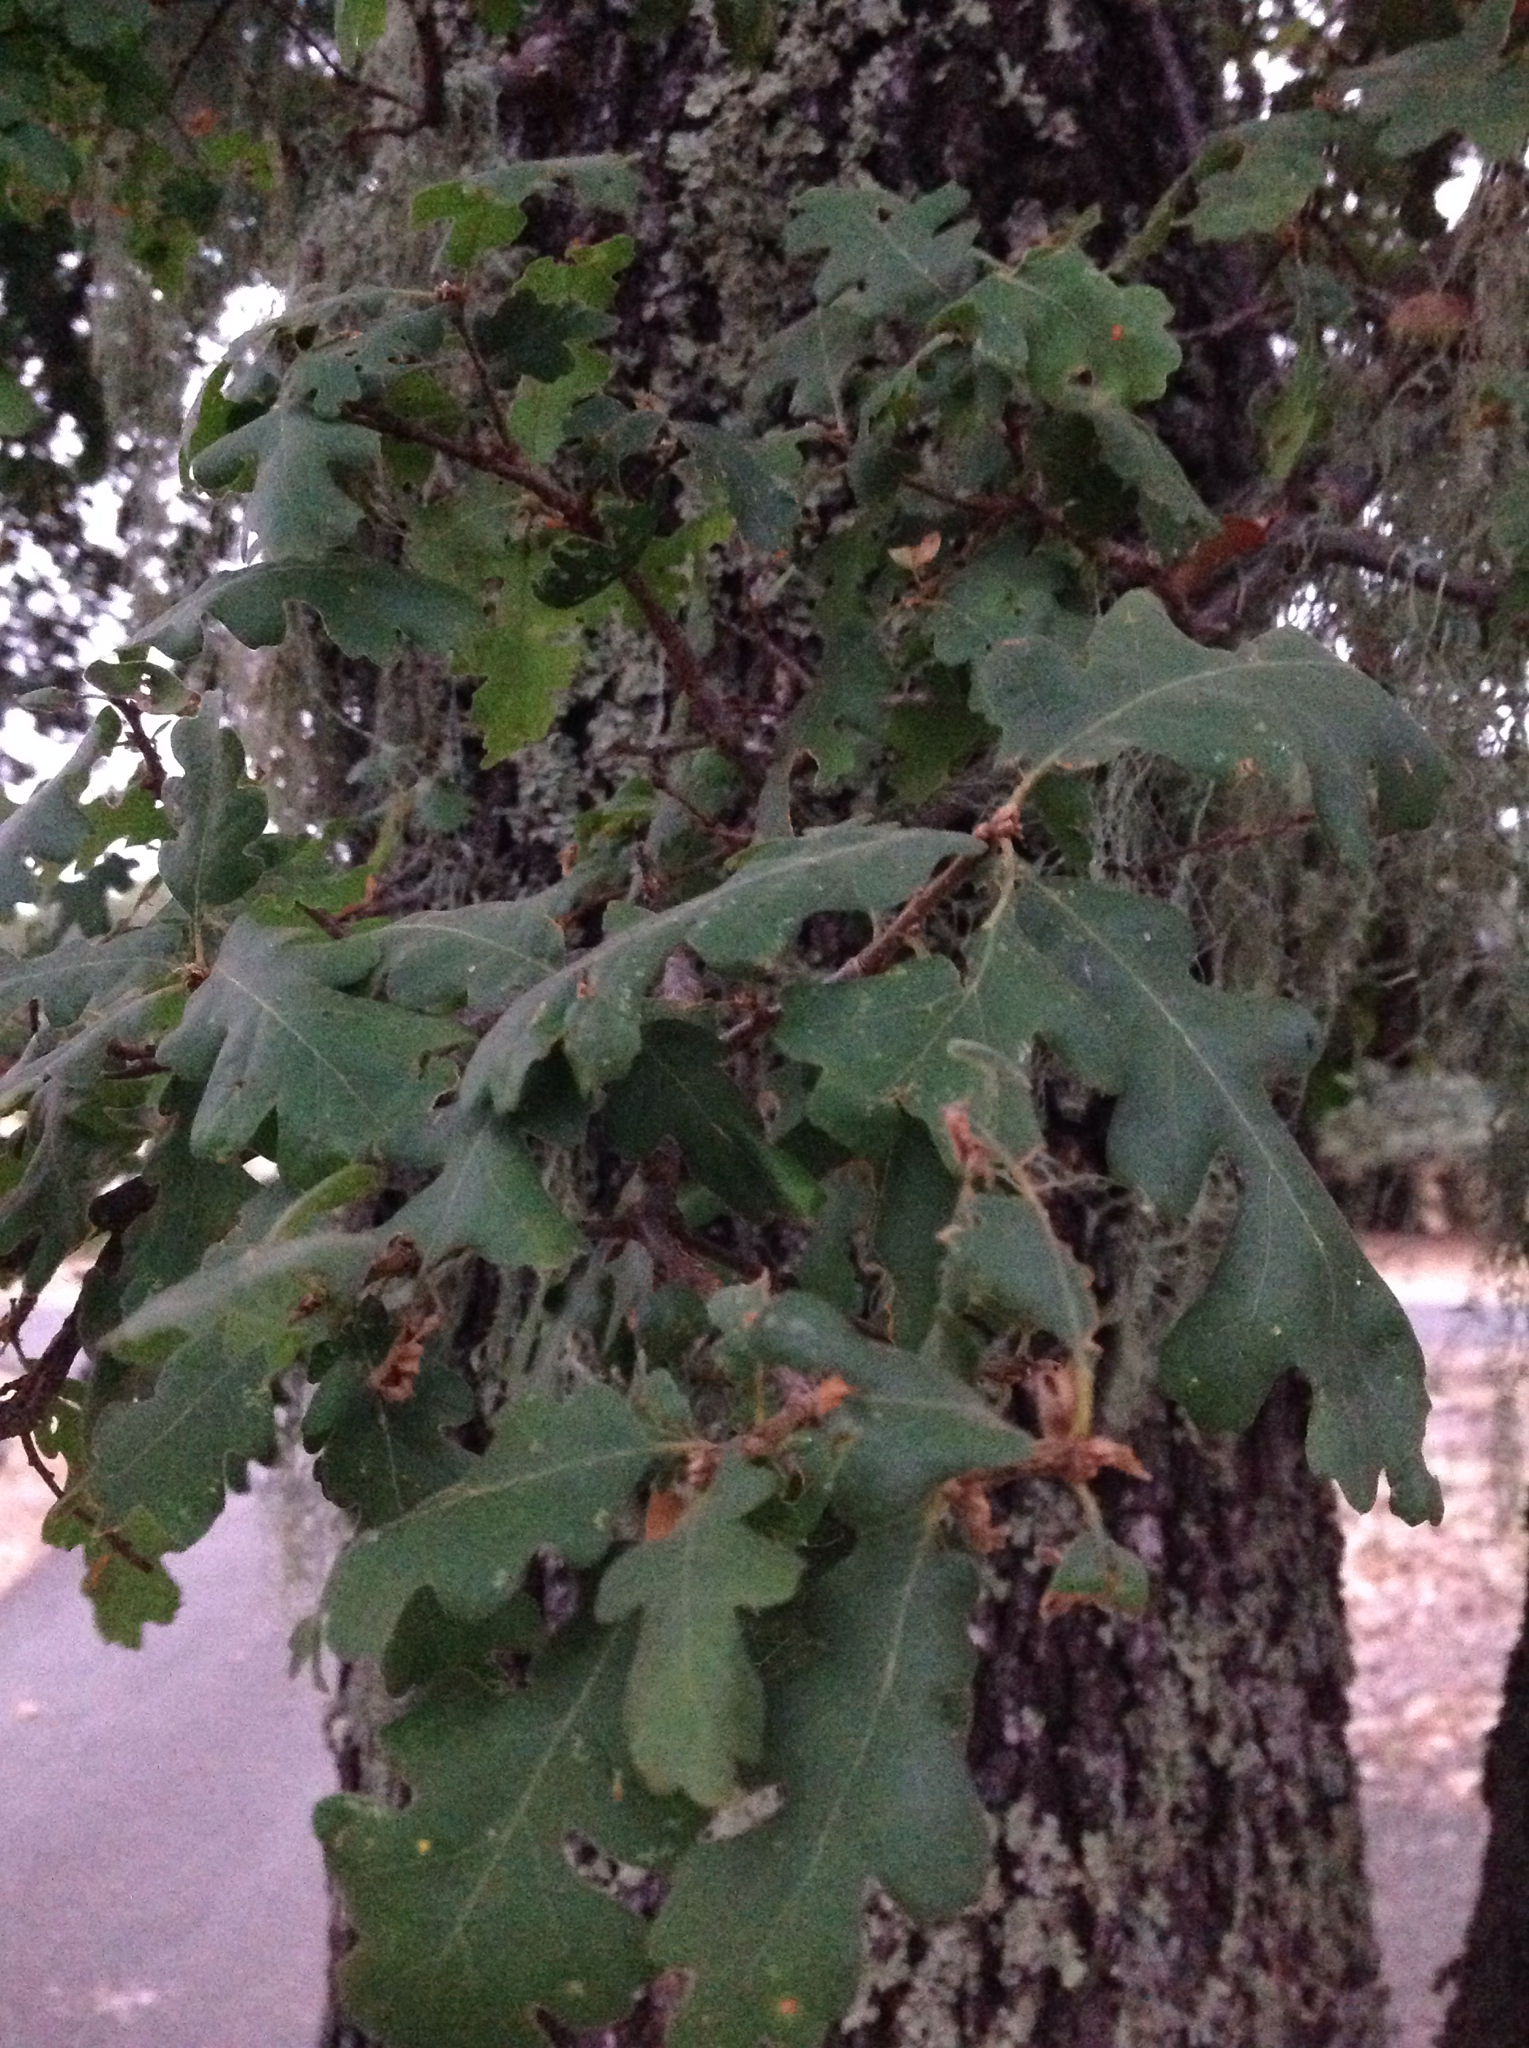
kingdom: Plantae
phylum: Tracheophyta
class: Magnoliopsida
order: Fagales
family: Fagaceae
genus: Quercus
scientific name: Quercus garryana
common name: Garry oak
